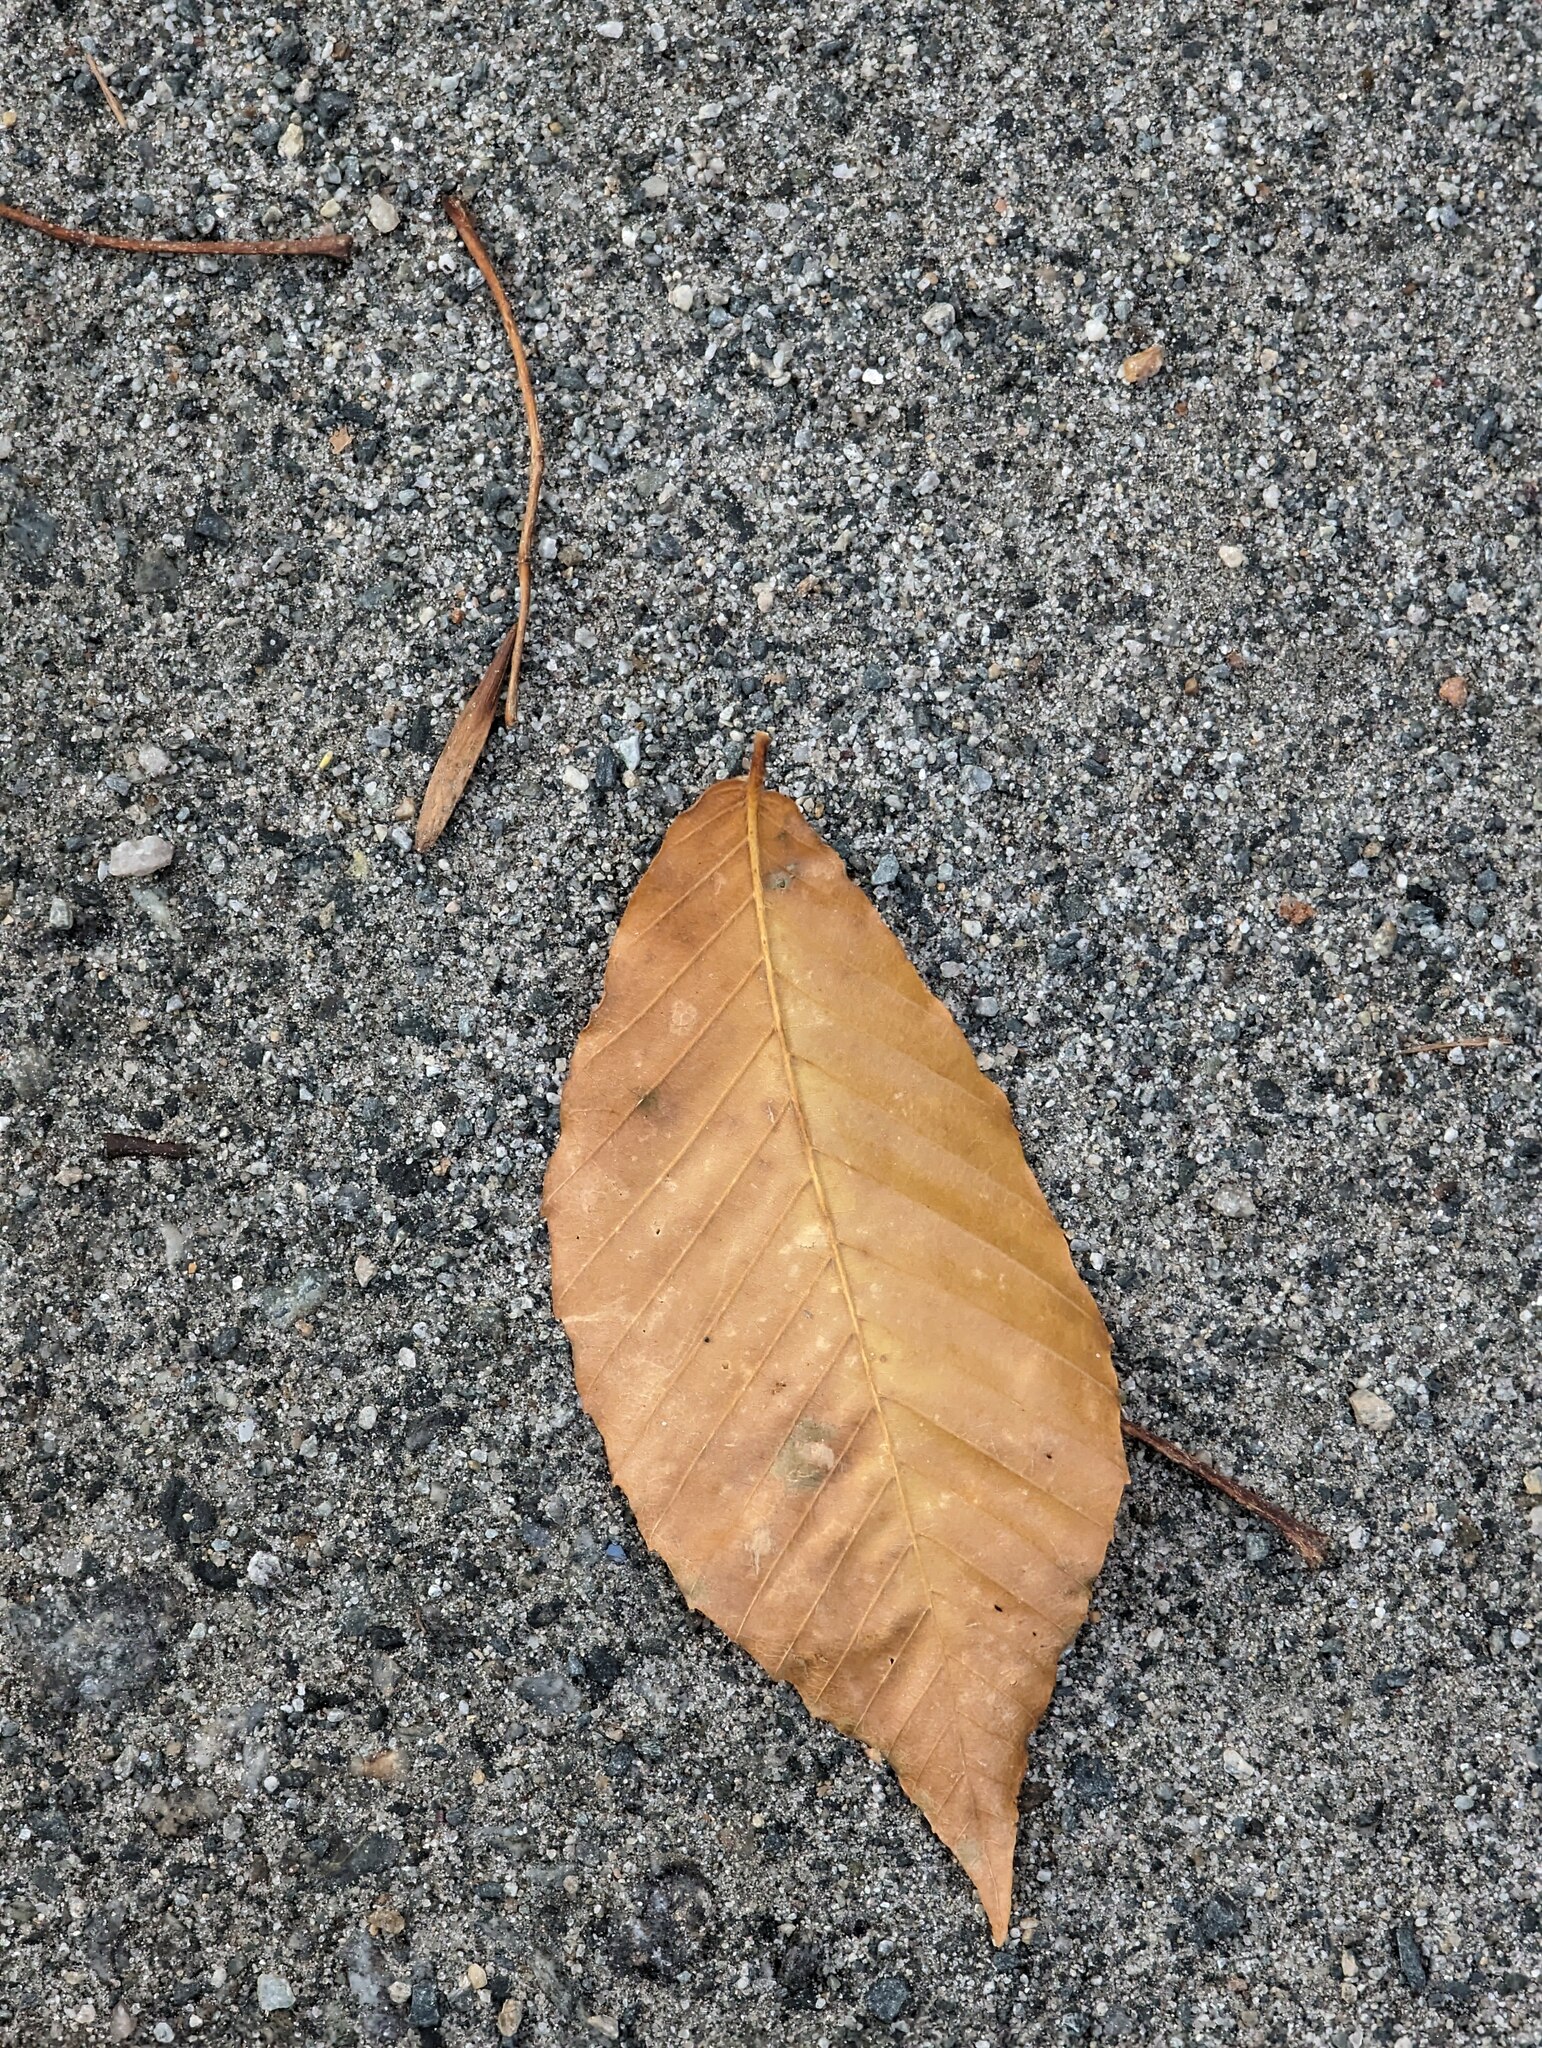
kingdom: Plantae
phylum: Tracheophyta
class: Magnoliopsida
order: Fagales
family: Fagaceae
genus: Fagus
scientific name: Fagus grandifolia
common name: American beech
